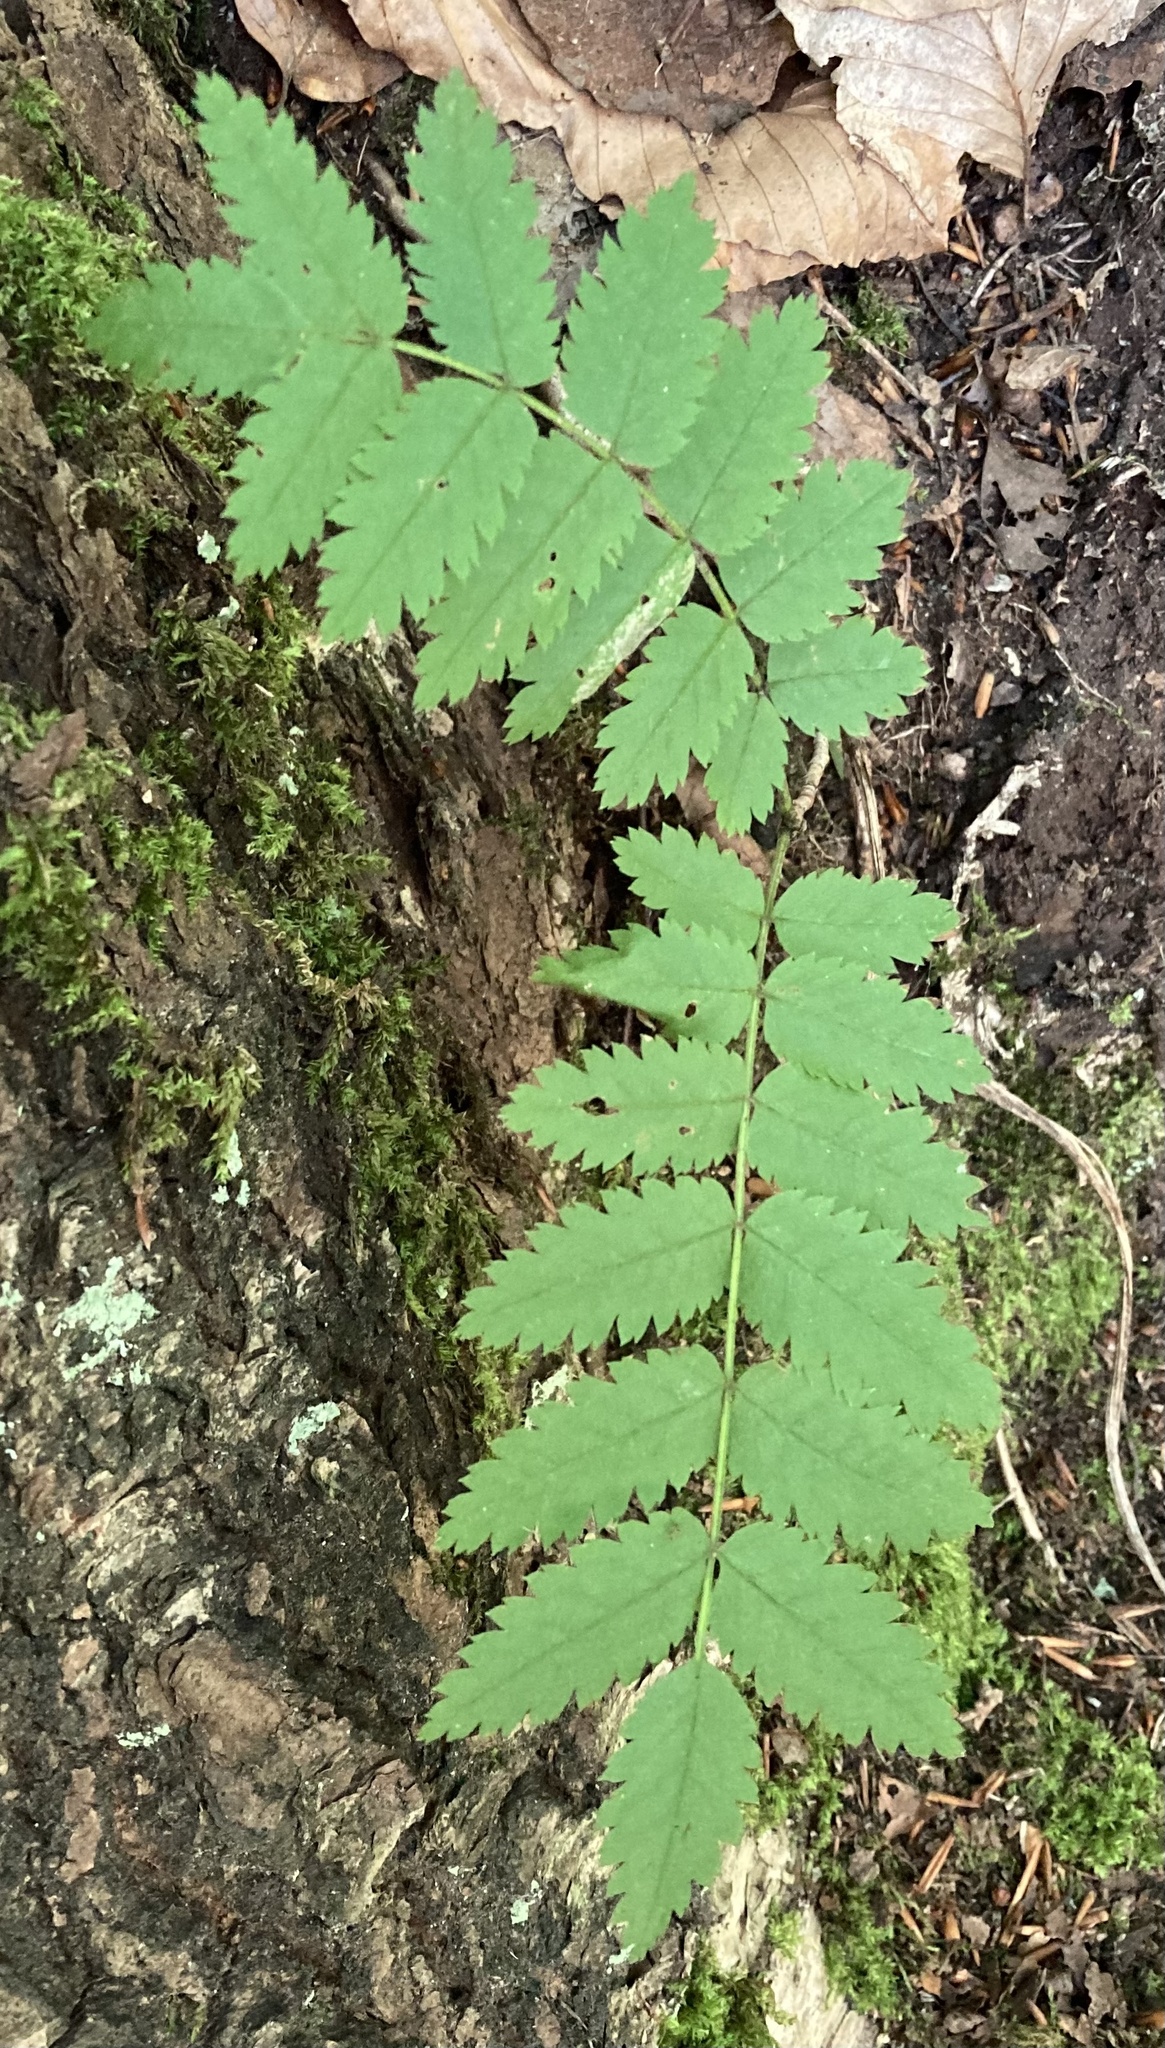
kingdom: Plantae
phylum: Tracheophyta
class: Magnoliopsida
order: Rosales
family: Rosaceae
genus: Sorbus
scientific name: Sorbus aucuparia
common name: Rowan
